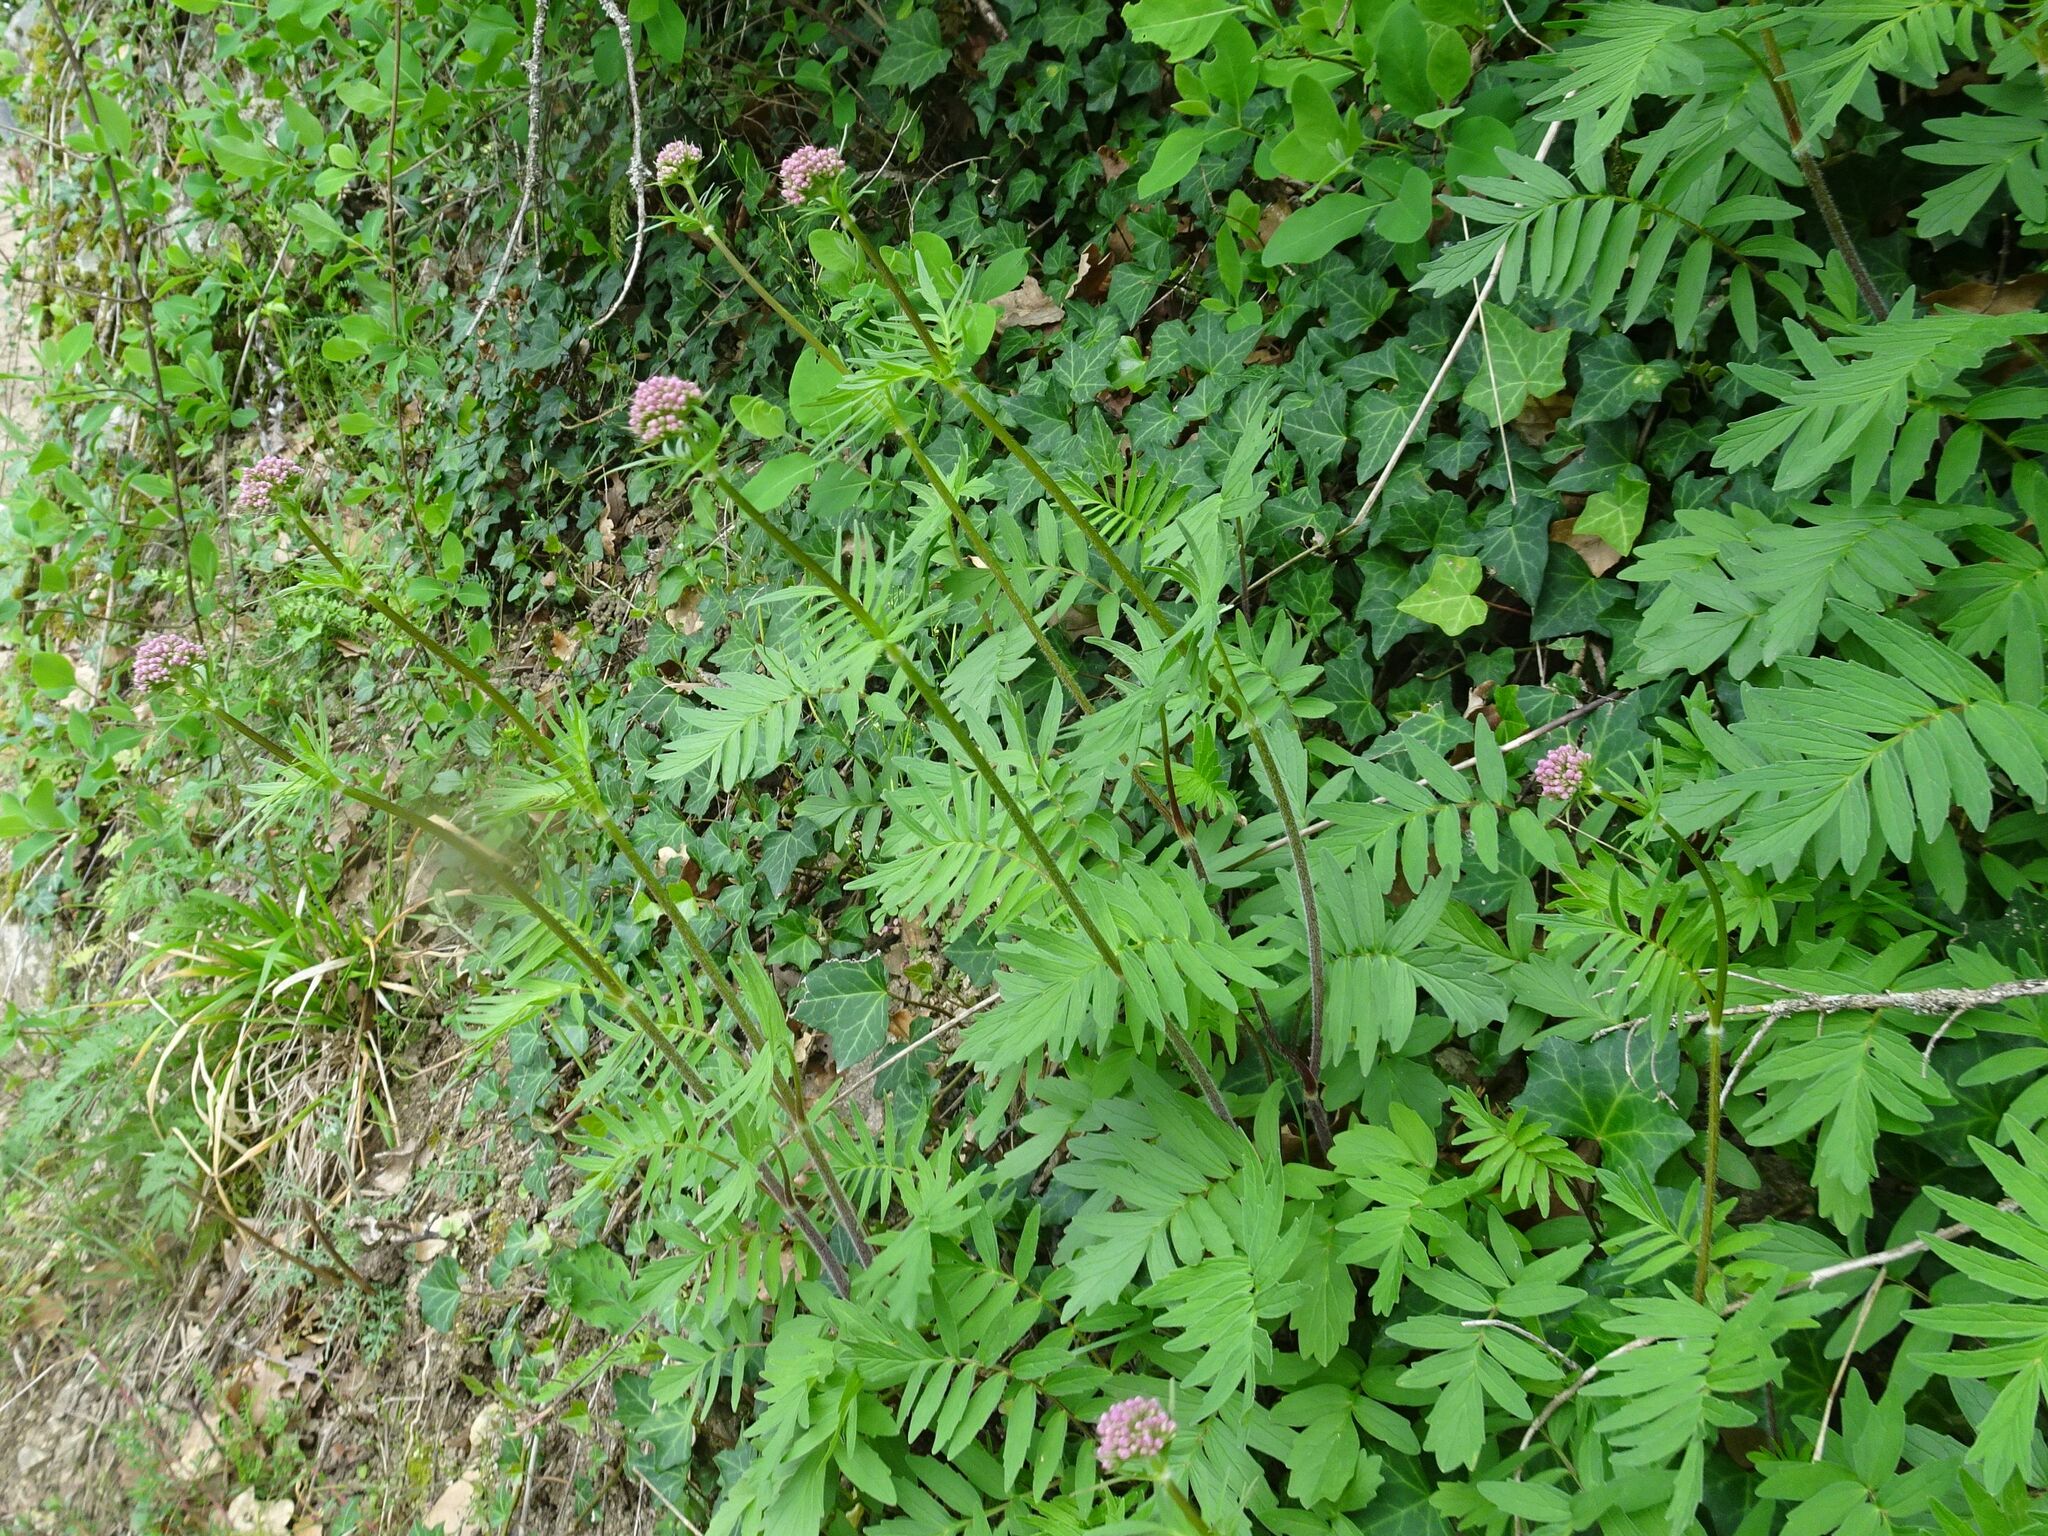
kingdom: Plantae
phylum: Tracheophyta
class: Magnoliopsida
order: Dipsacales
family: Caprifoliaceae
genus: Valeriana
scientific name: Valeriana officinalis
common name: Common valerian
